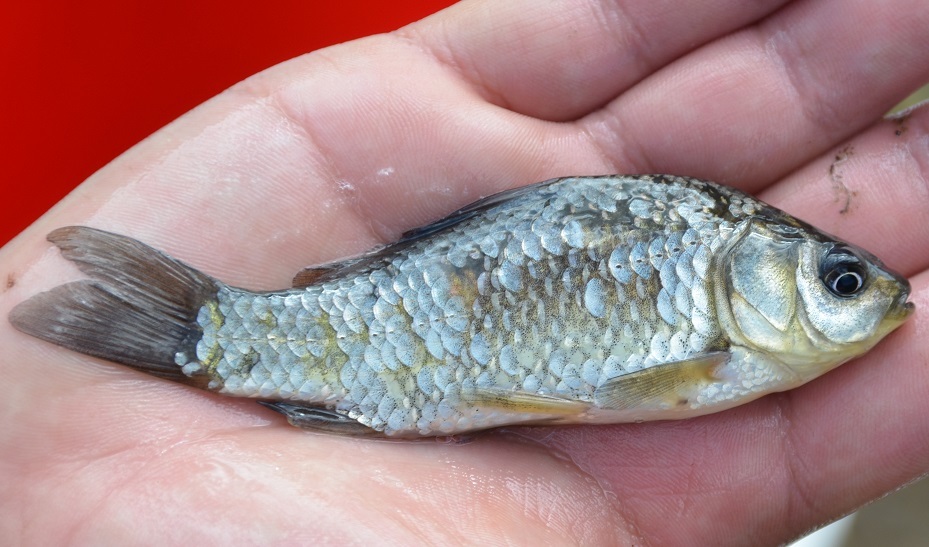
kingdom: Animalia
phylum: Chordata
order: Cypriniformes
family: Cyprinidae
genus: Carassius
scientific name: Carassius auratus
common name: Goldfish
